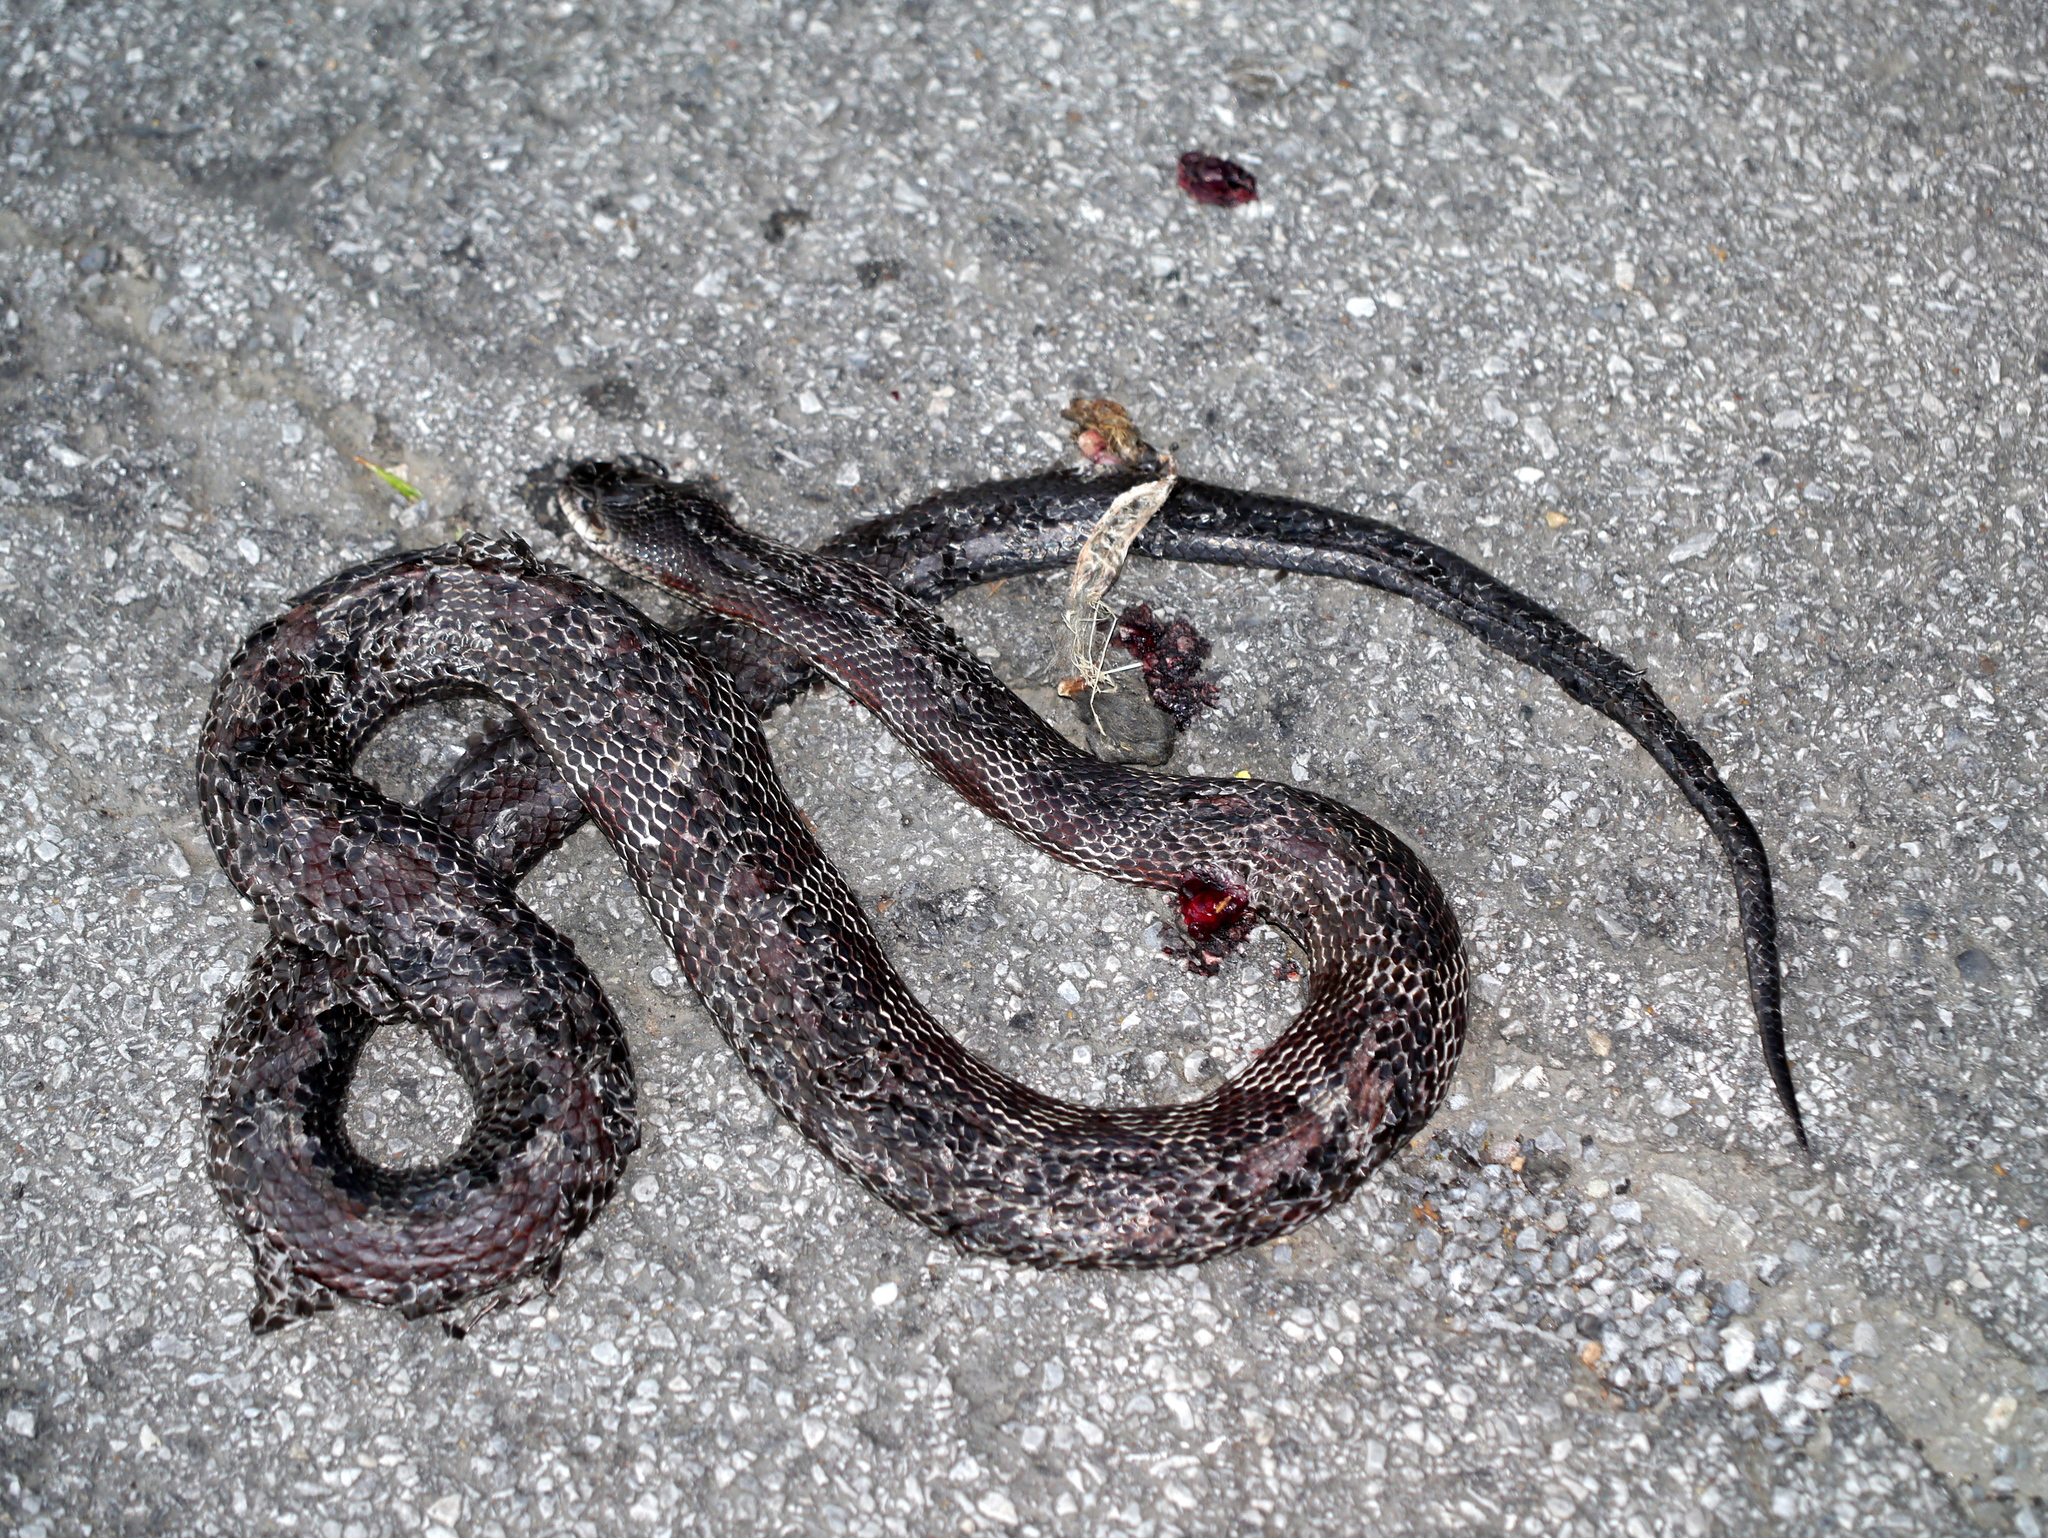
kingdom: Animalia
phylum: Chordata
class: Squamata
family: Colubridae
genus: Pantherophis
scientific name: Pantherophis spiloides
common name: Gray rat snake
